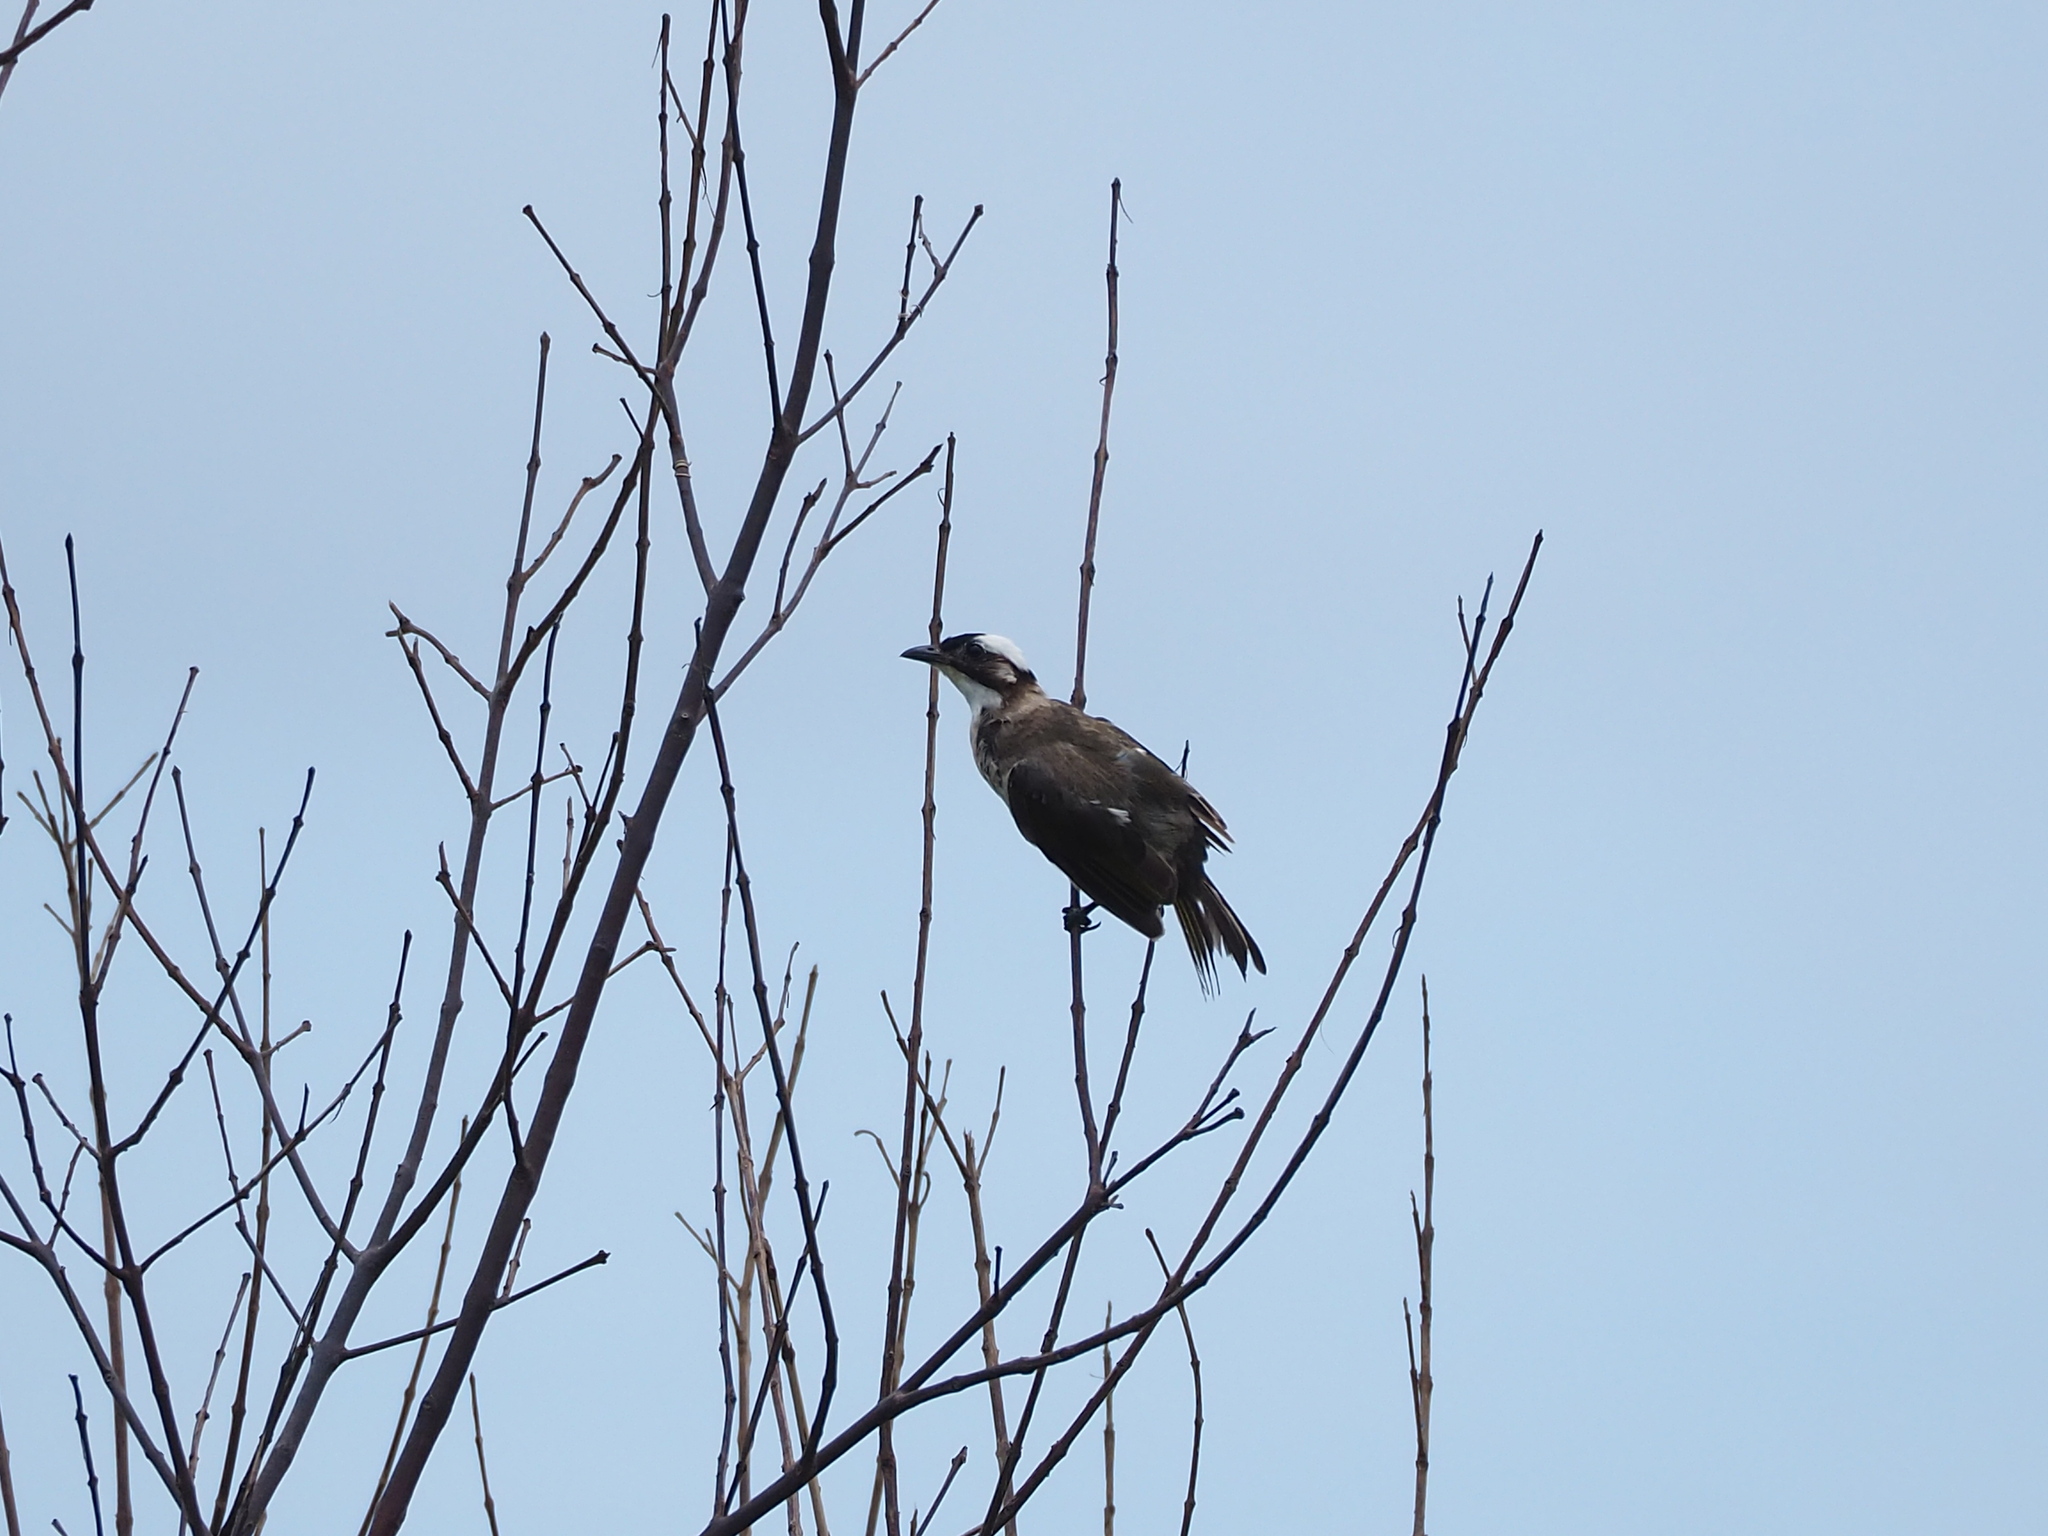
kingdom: Animalia
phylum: Chordata
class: Aves
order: Passeriformes
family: Pycnonotidae
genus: Pycnonotus
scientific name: Pycnonotus sinensis
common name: Light-vented bulbul
